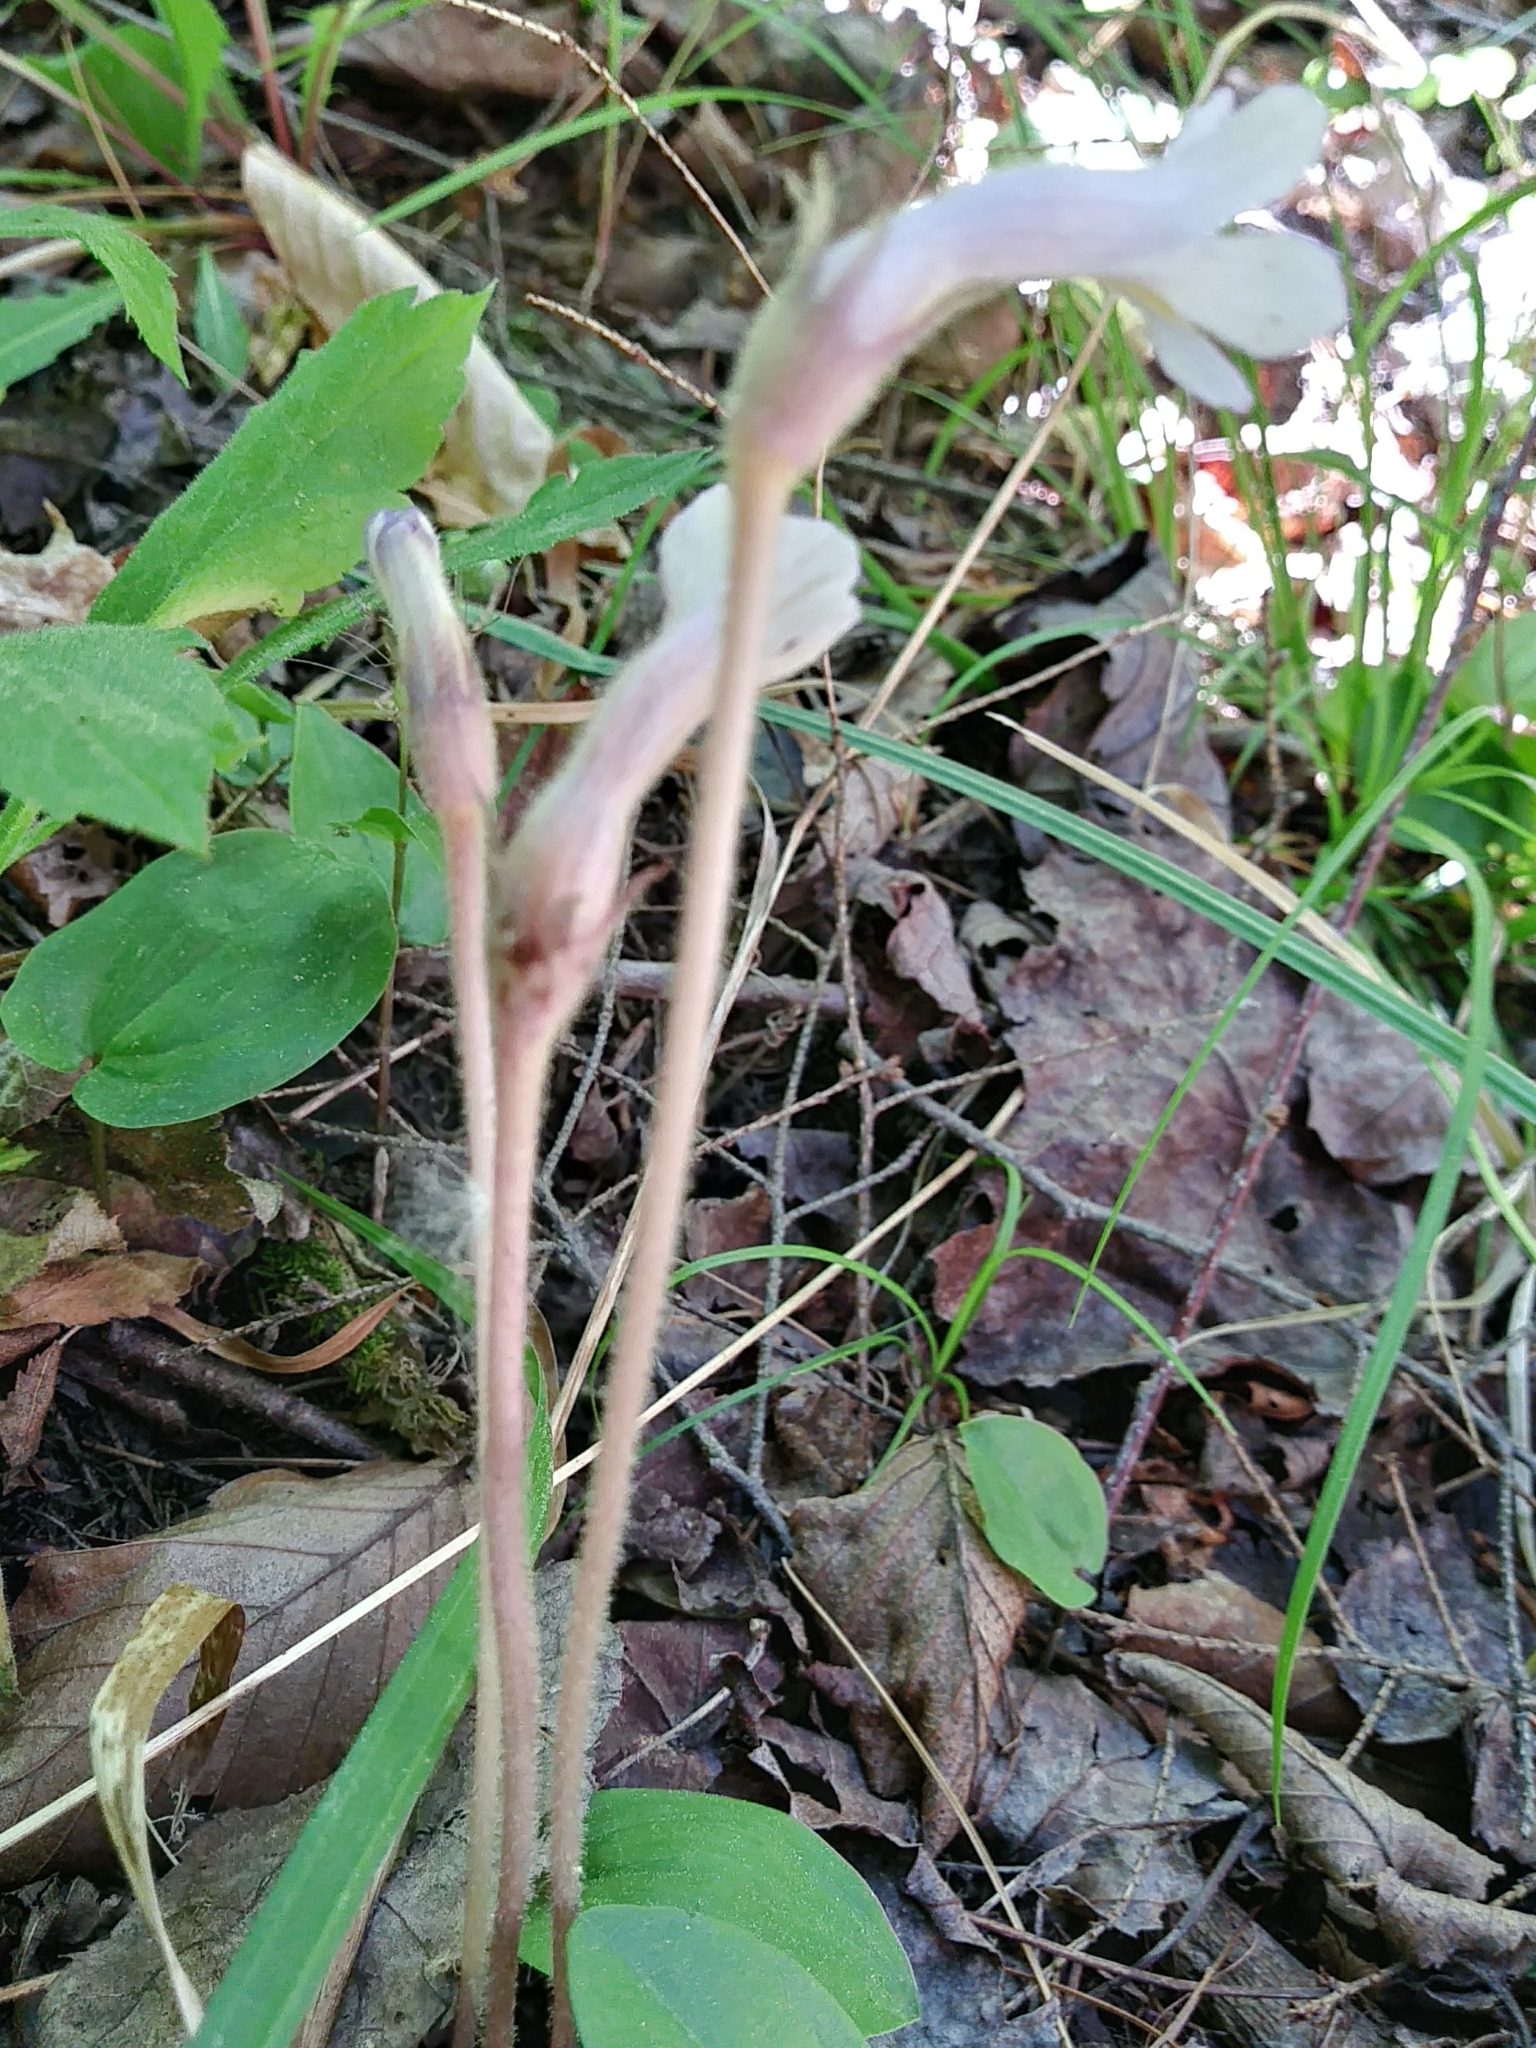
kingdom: Plantae
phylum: Tracheophyta
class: Magnoliopsida
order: Lamiales
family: Orobanchaceae
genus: Aphyllon
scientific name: Aphyllon uniflorum
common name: One-flowered broomrape
